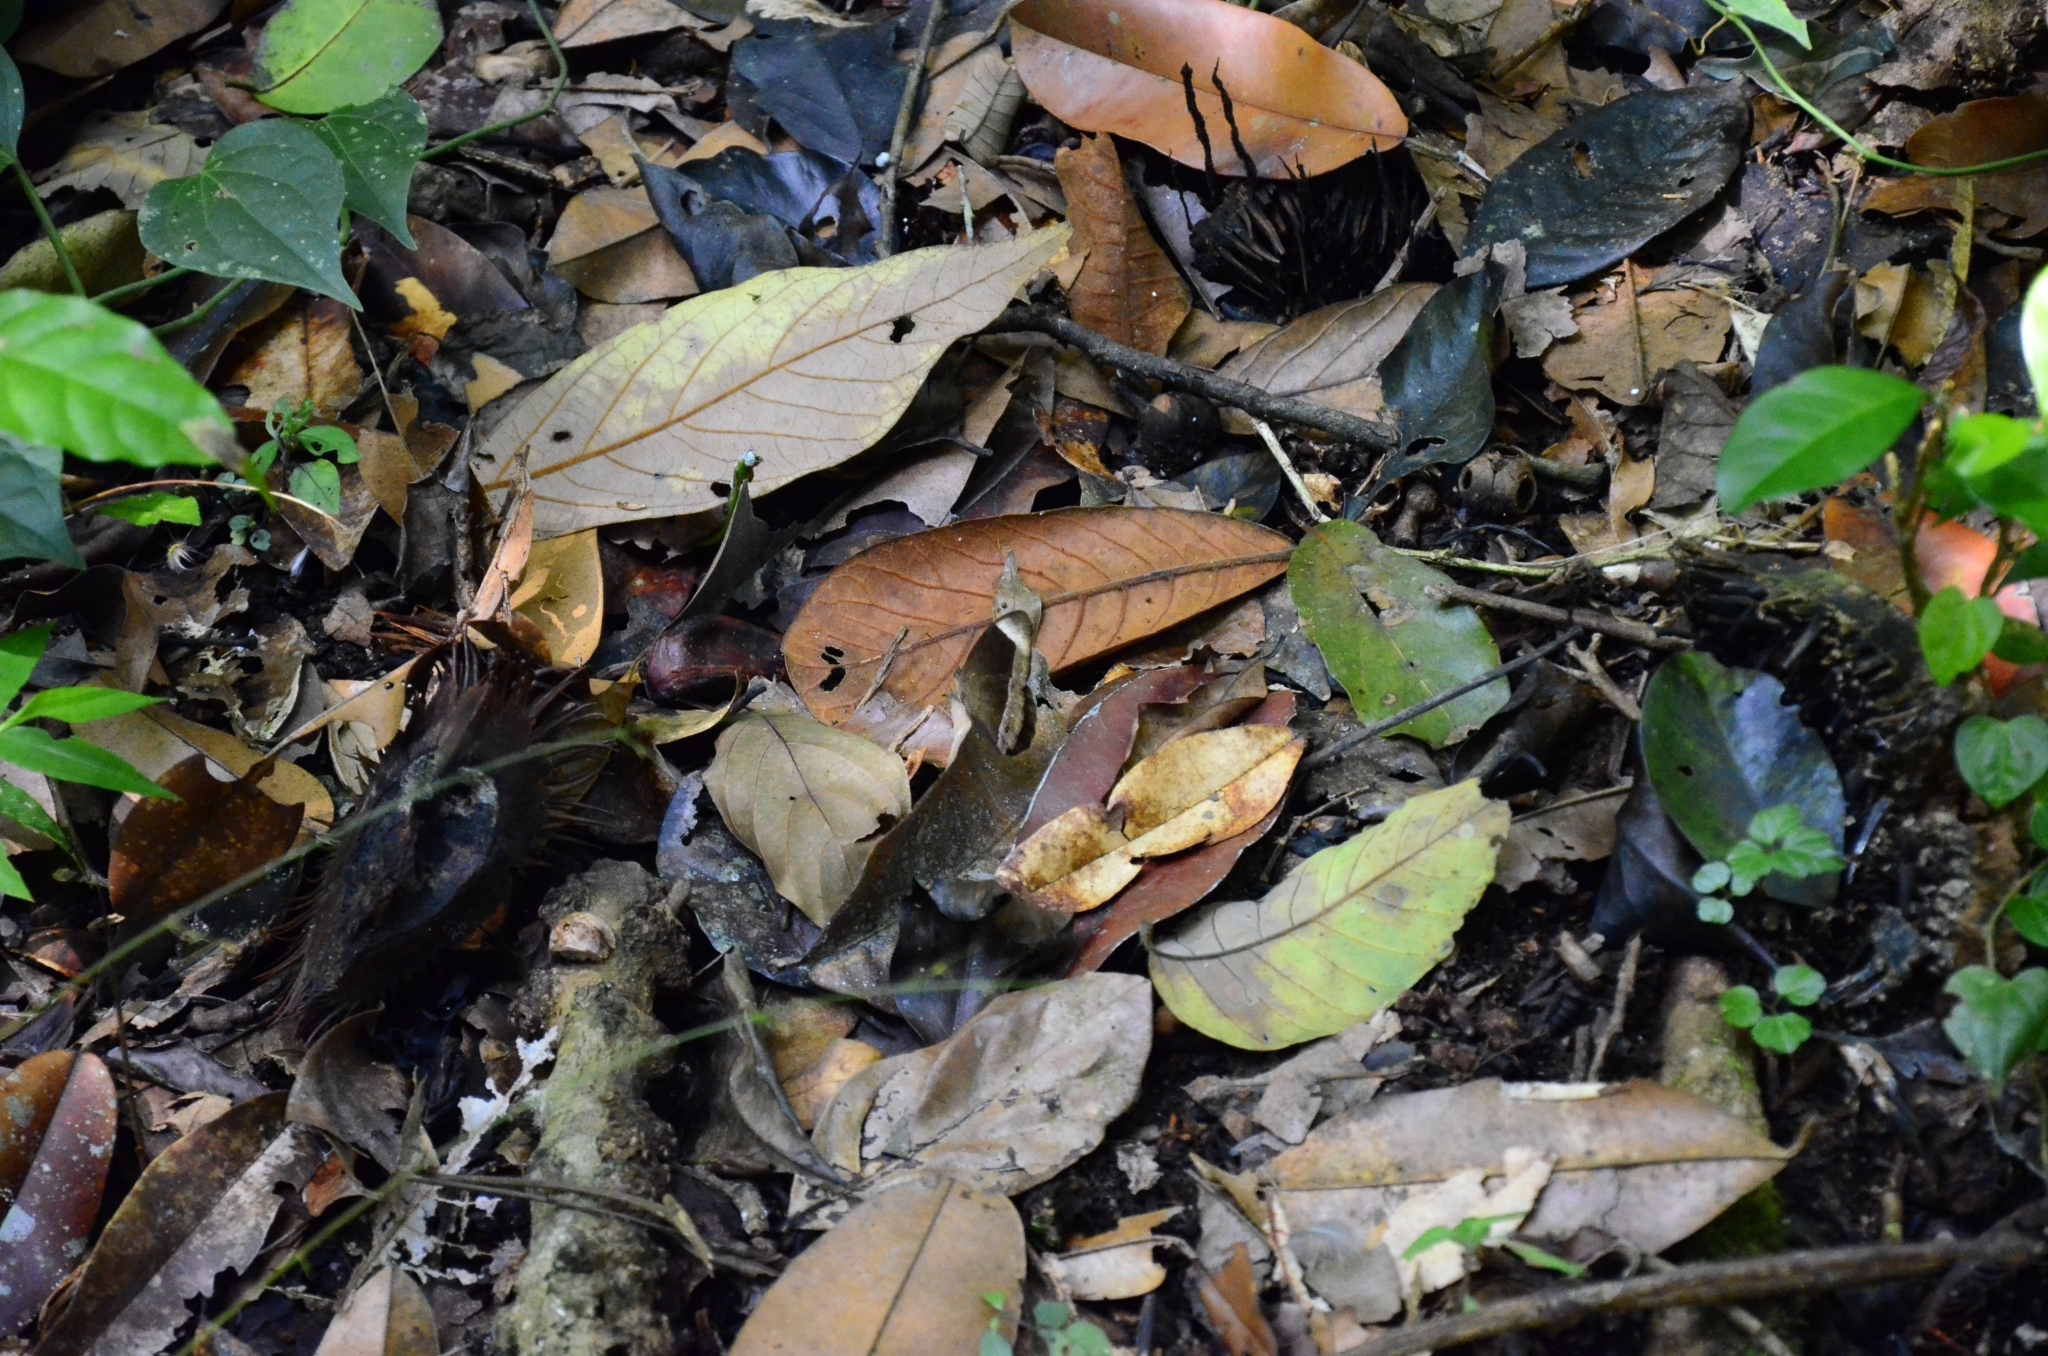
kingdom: Animalia
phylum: Arthropoda
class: Insecta
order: Lepidoptera
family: Nymphalidae
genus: Mycalesis
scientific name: Mycalesis anaxias
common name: White-bar bushbrown
